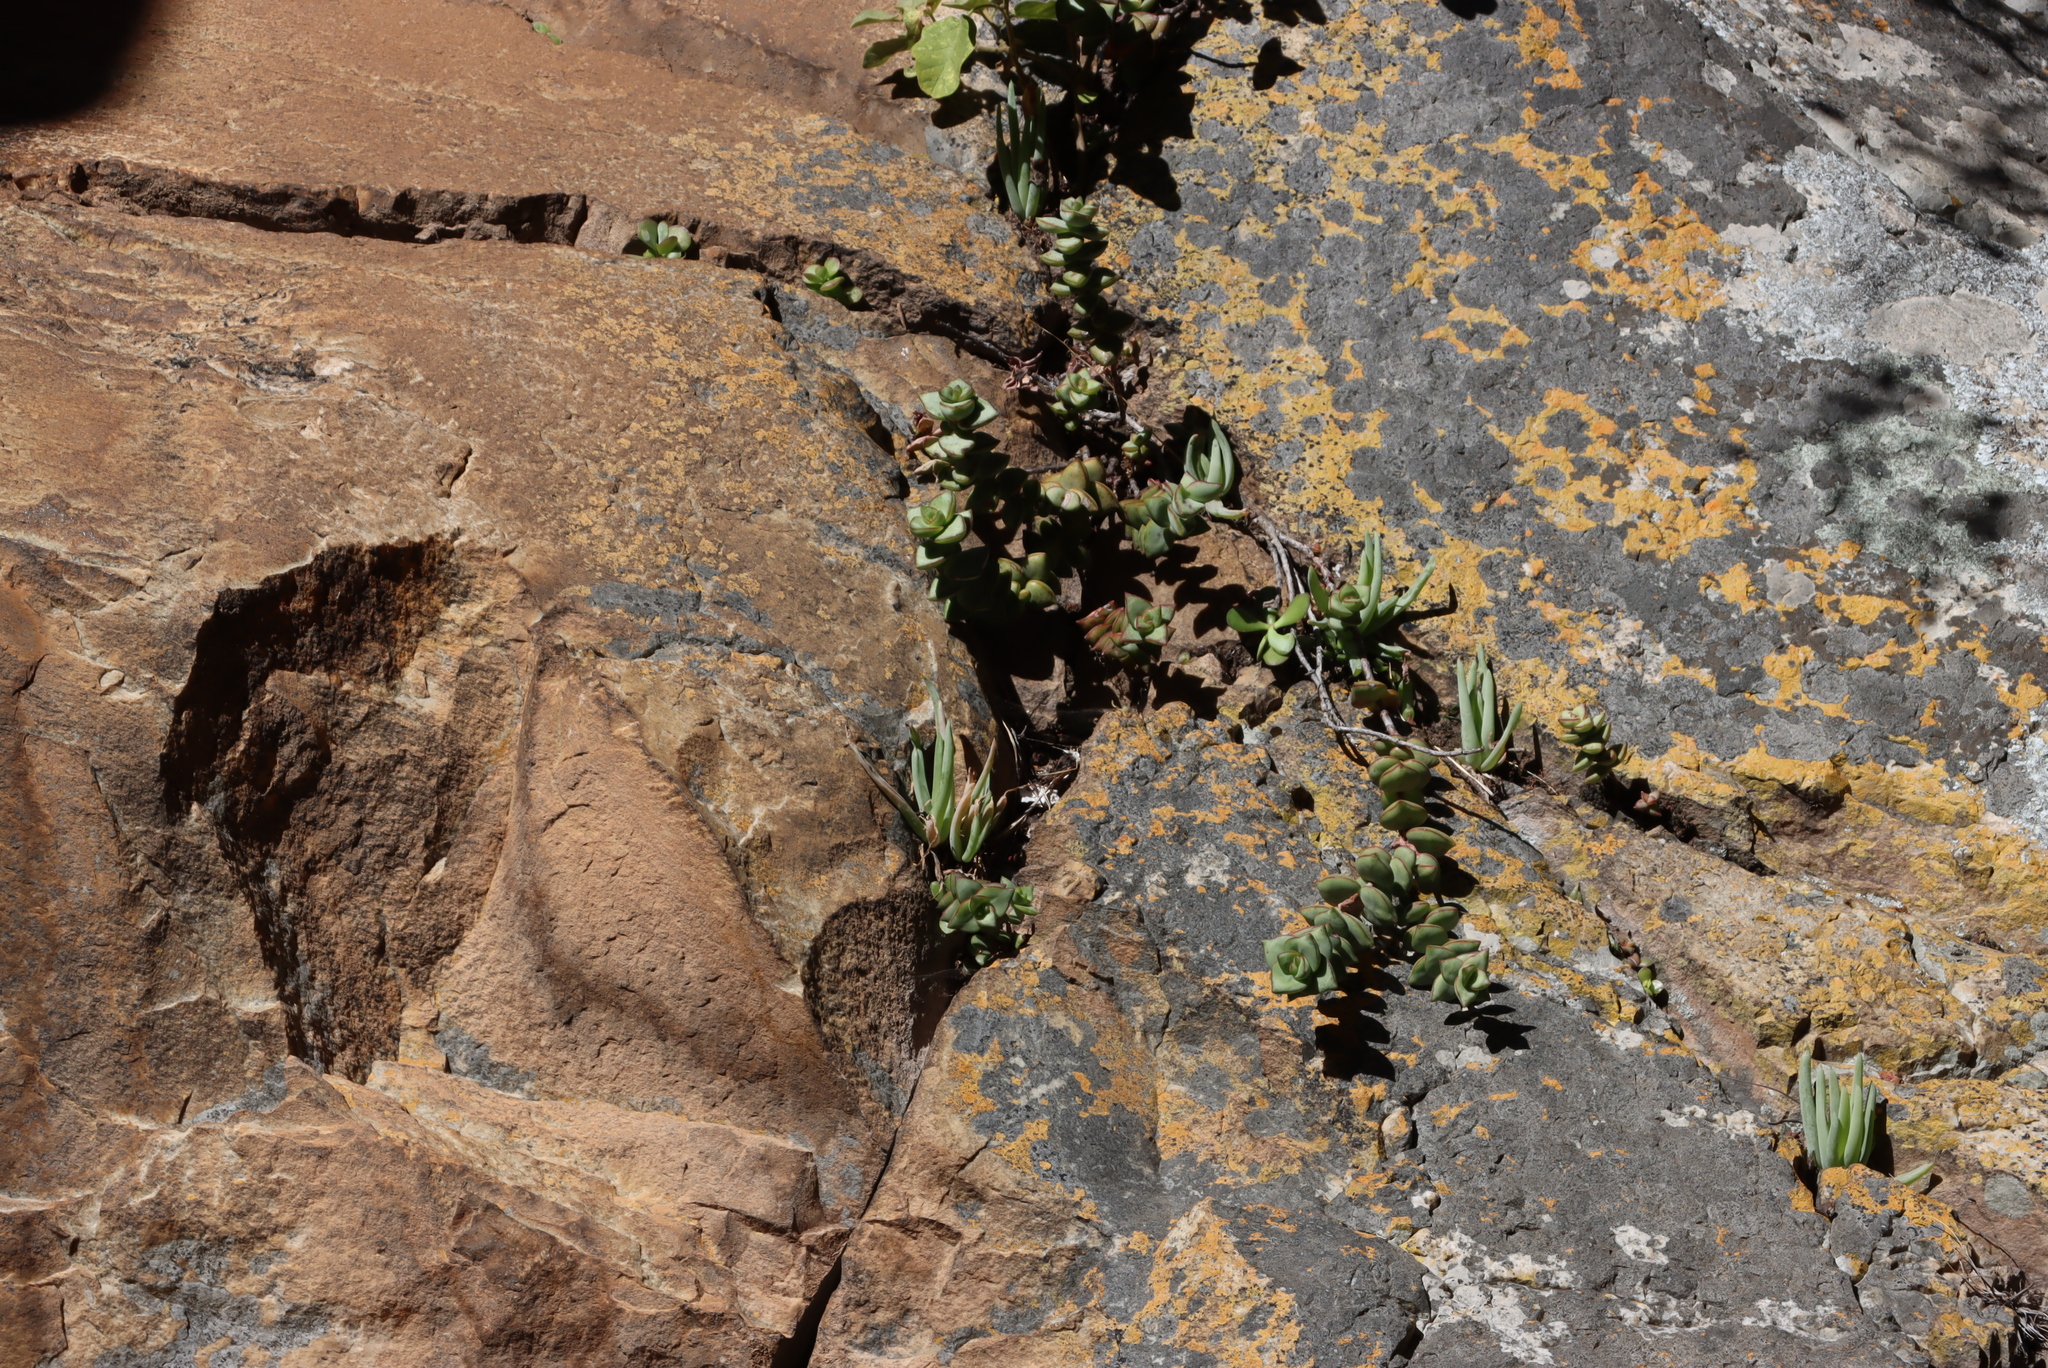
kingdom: Plantae
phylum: Tracheophyta
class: Magnoliopsida
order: Saxifragales
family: Crassulaceae
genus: Crassula
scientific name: Crassula rupestris
